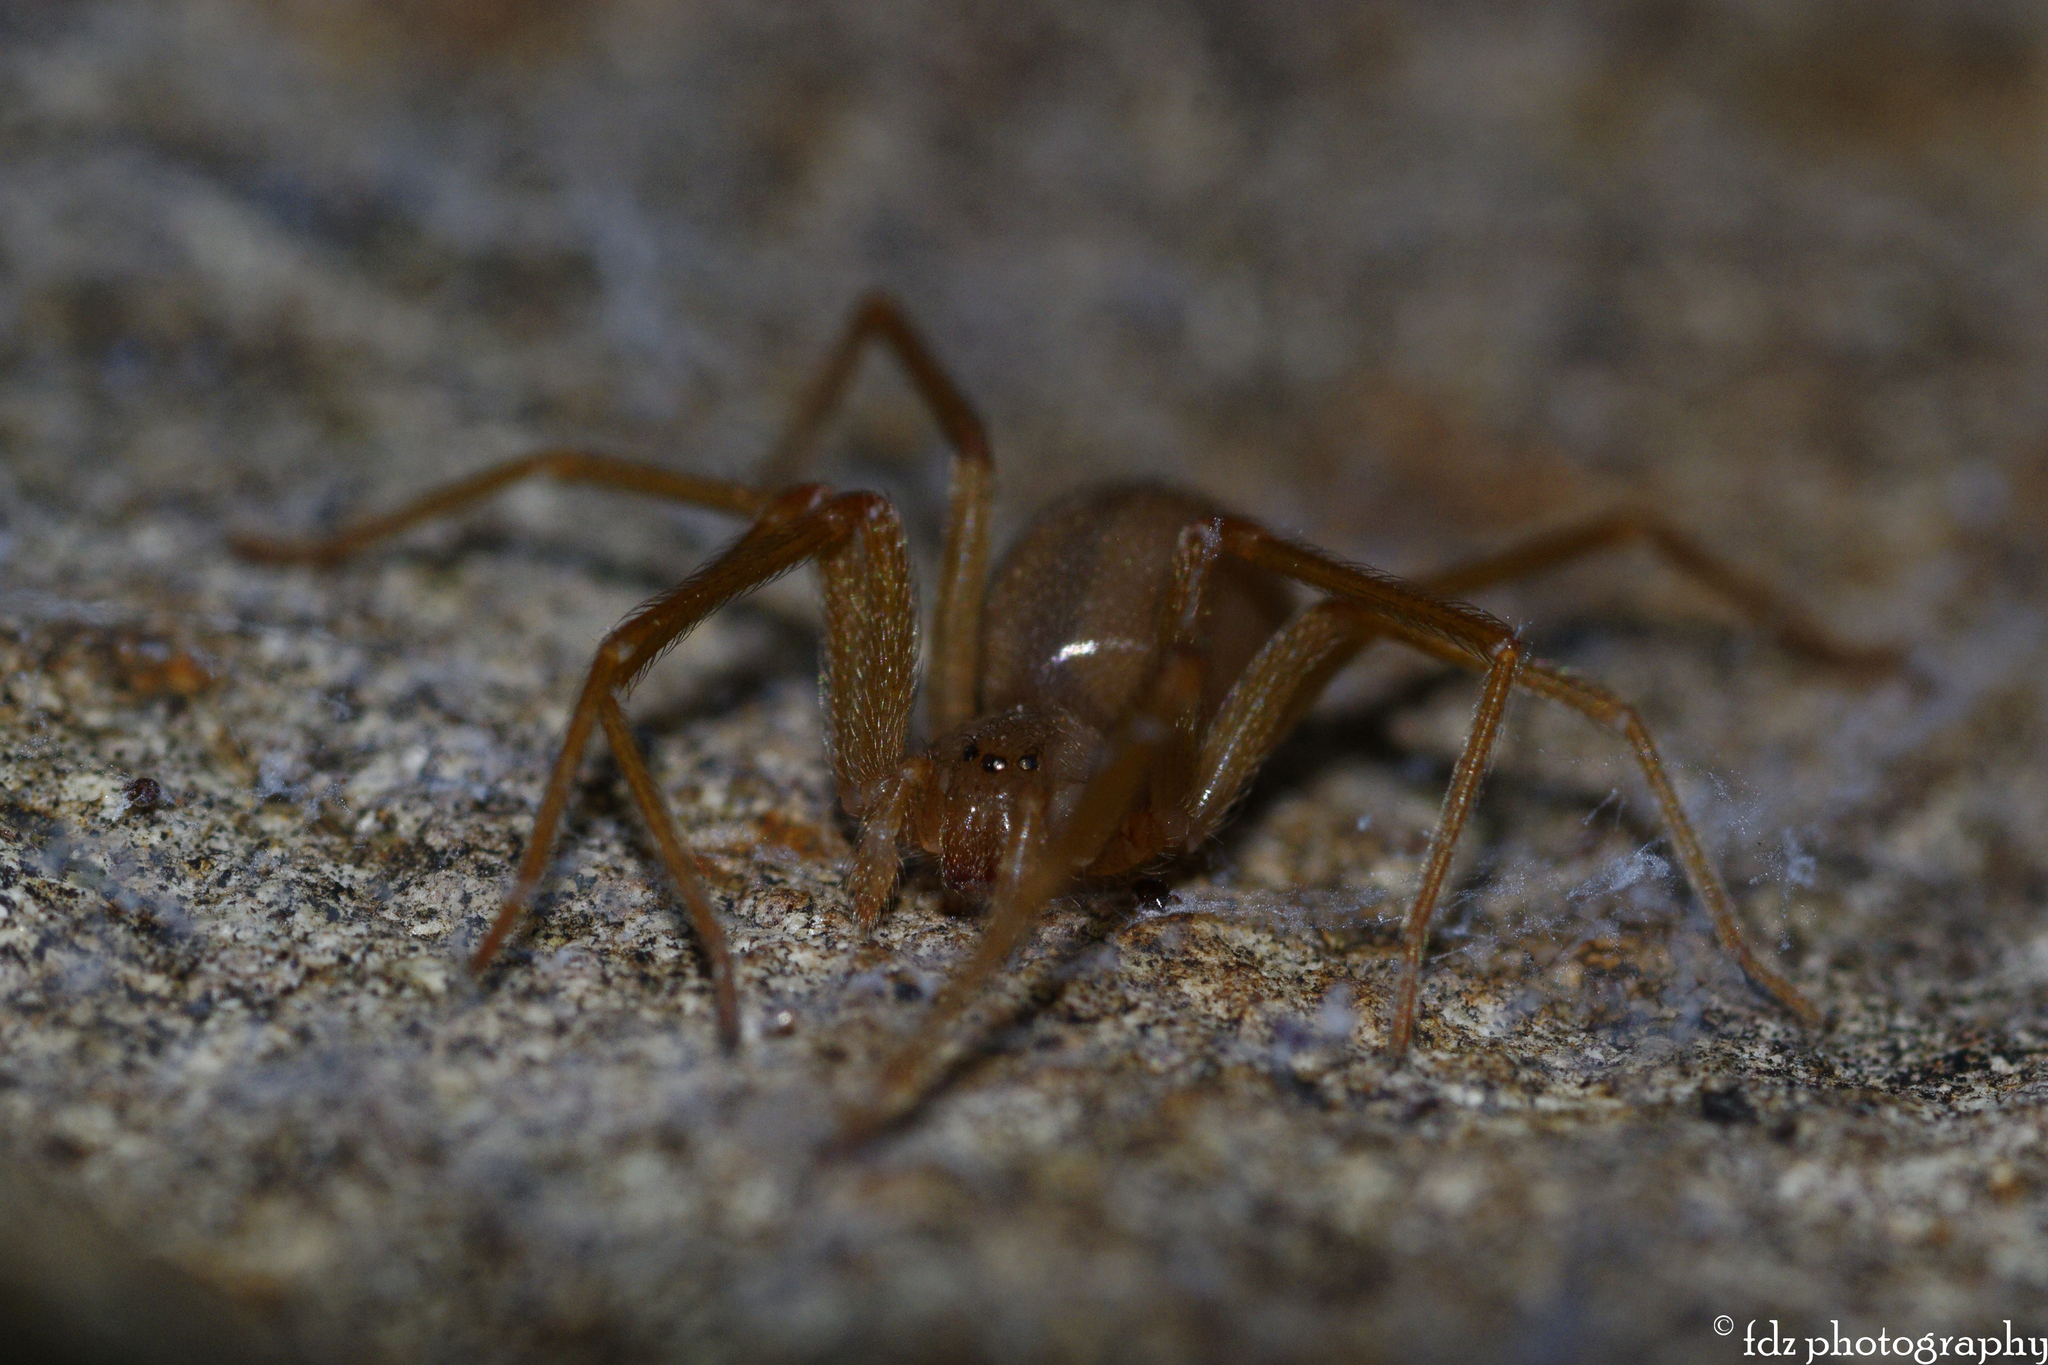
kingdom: Animalia
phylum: Arthropoda
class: Arachnida
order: Araneae
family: Sicariidae
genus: Loxosceles
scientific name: Loxosceles rufescens
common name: Mediterranean recluse spider
